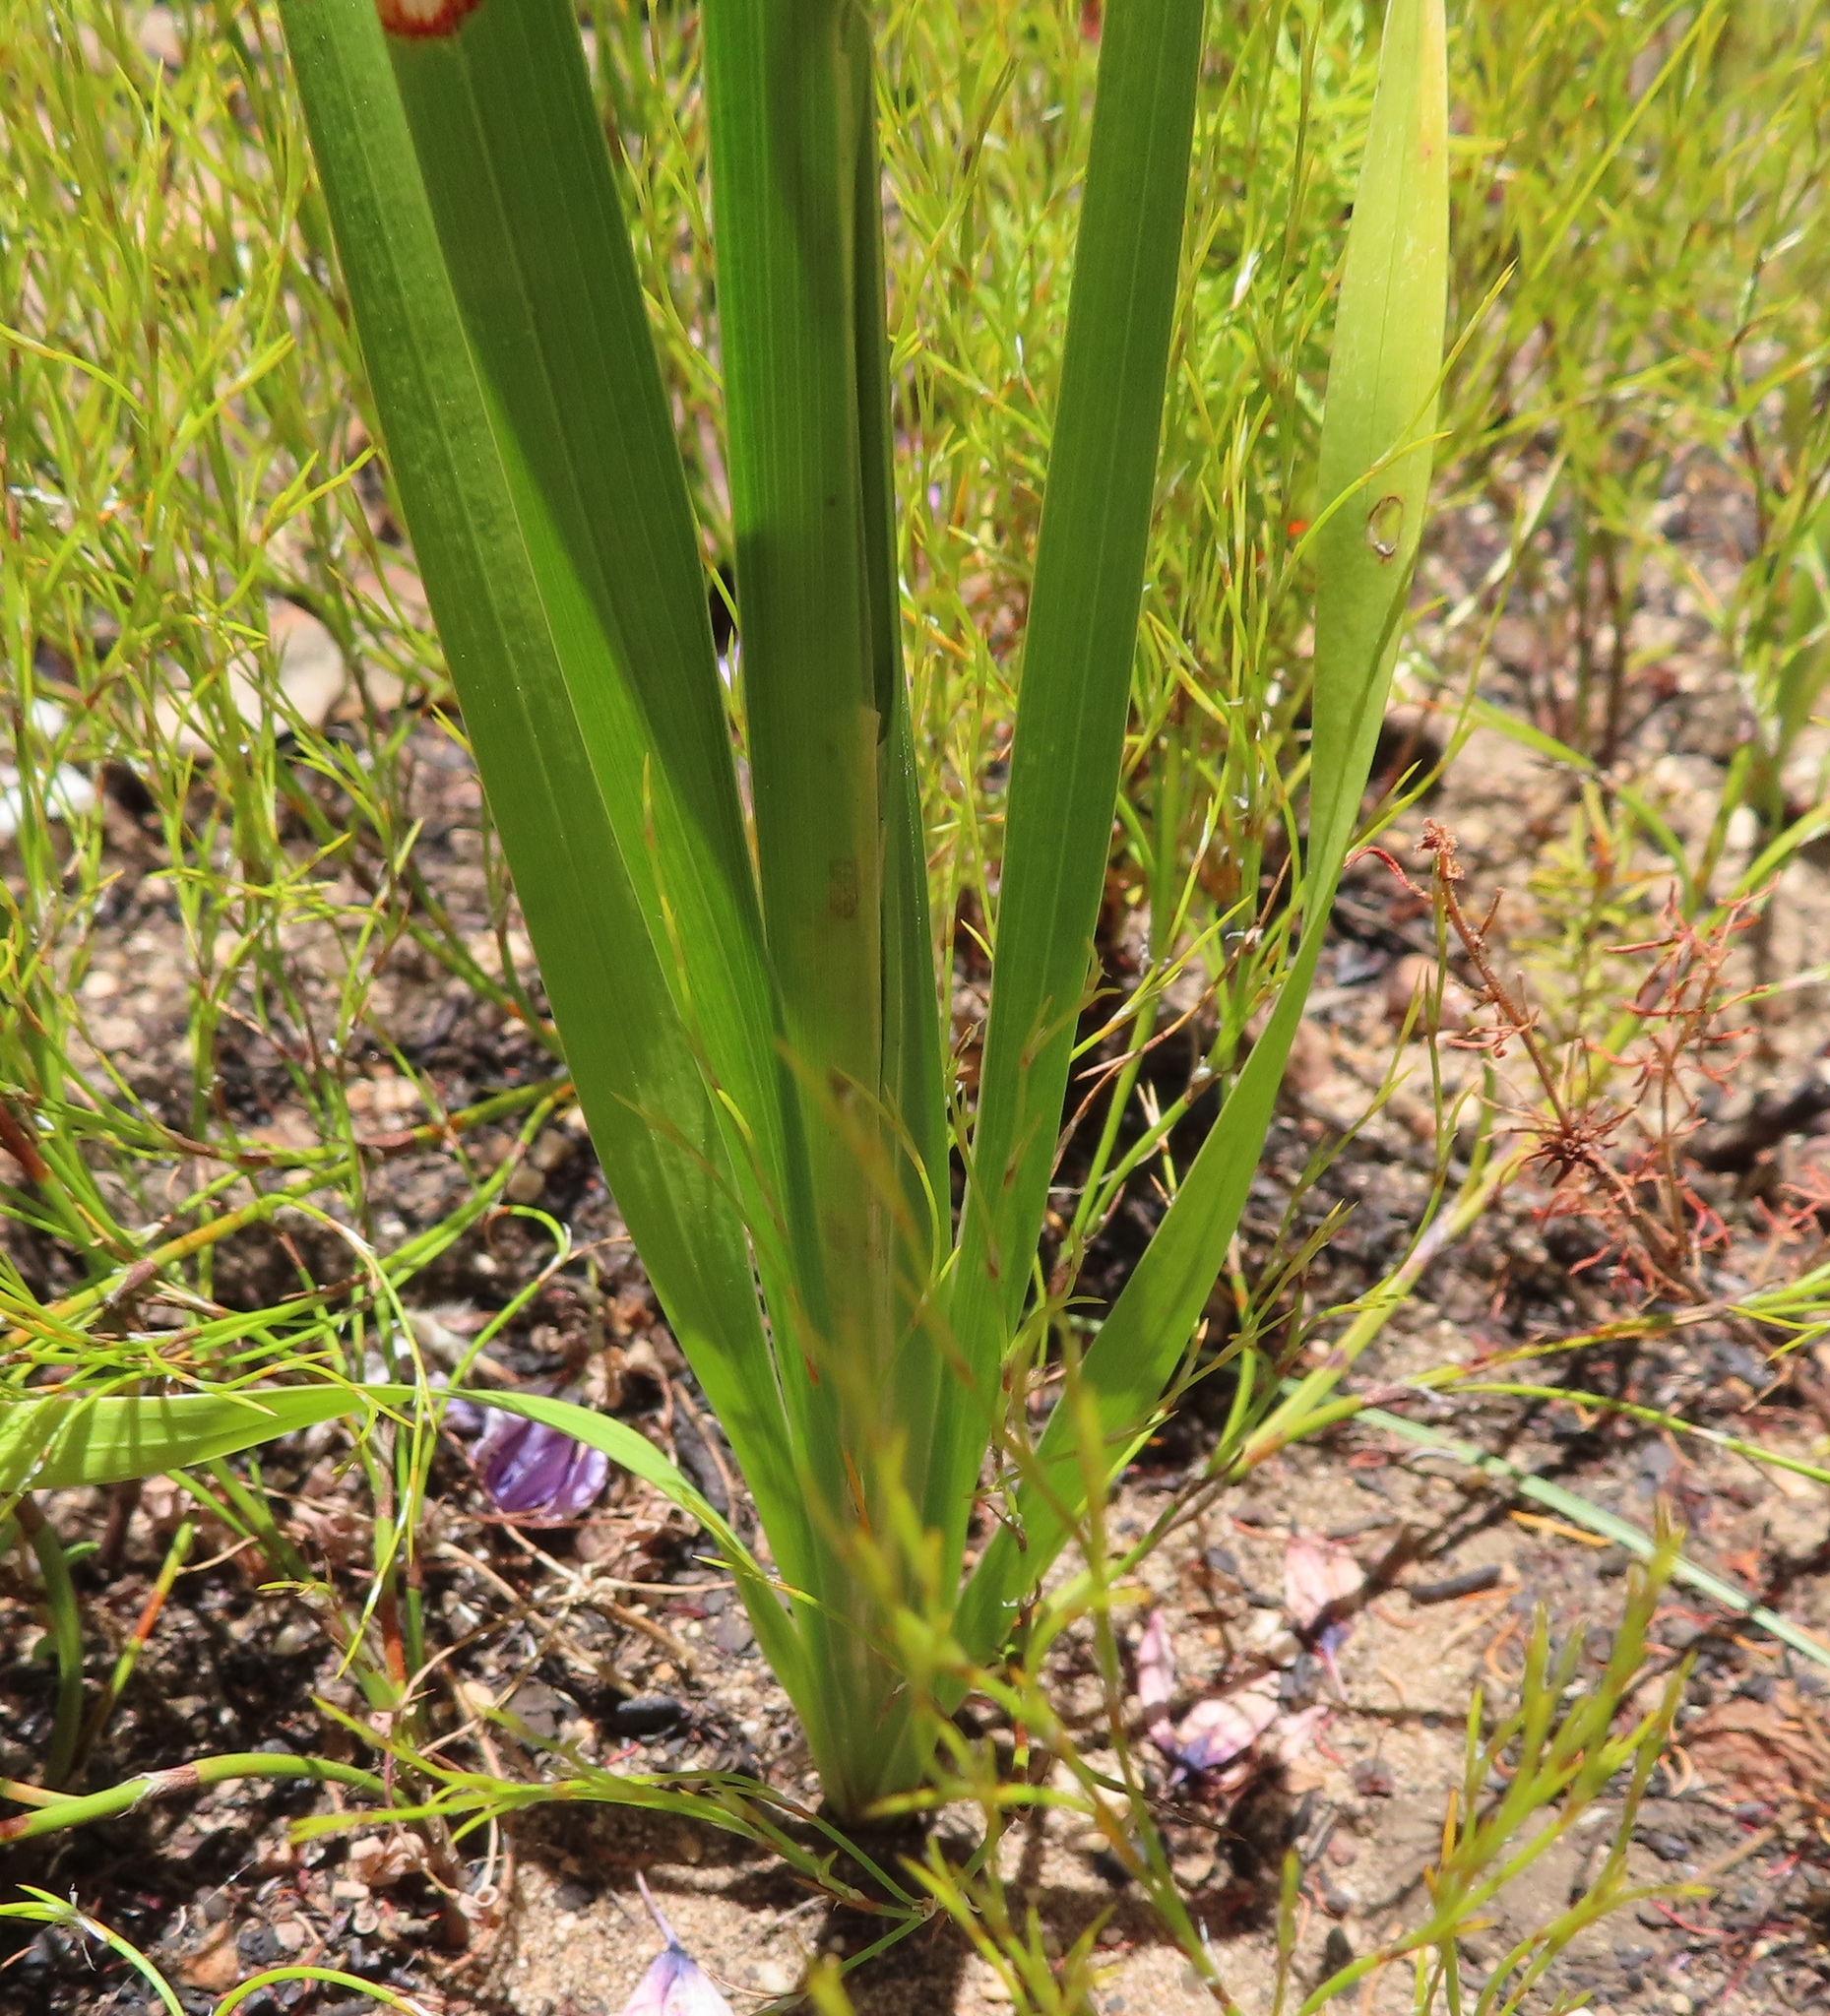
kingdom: Plantae
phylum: Tracheophyta
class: Liliopsida
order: Asparagales
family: Iridaceae
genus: Ixia
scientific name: Ixia polystachya
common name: White-and-yellow-flower cornlily
